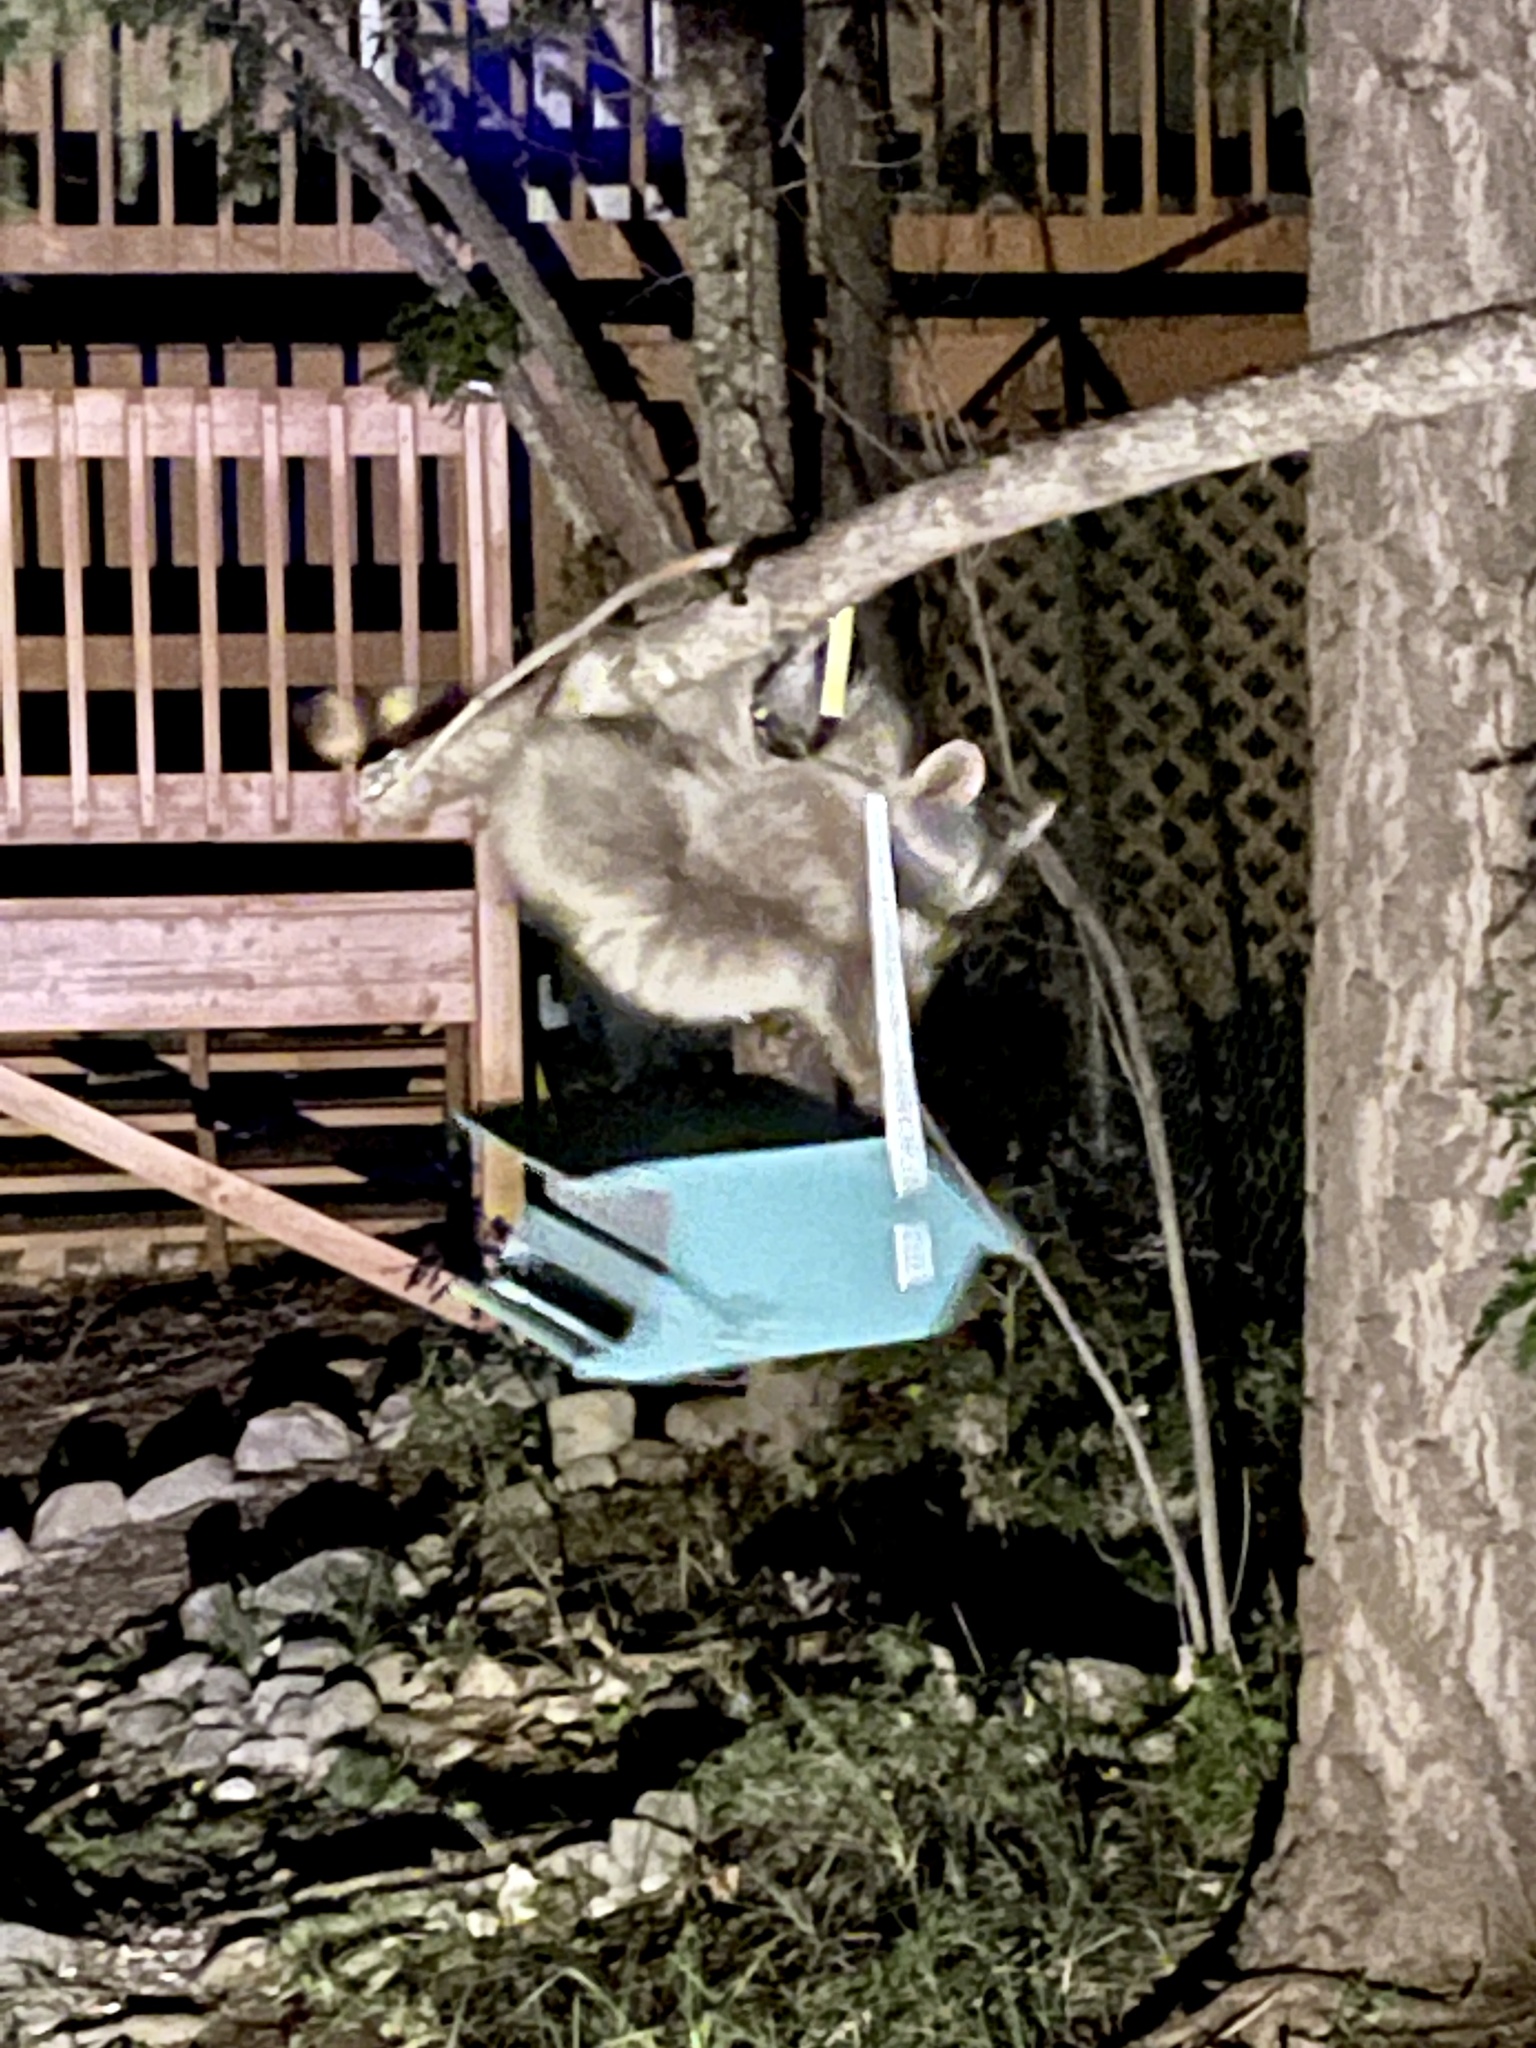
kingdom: Animalia
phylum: Chordata
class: Mammalia
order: Carnivora
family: Procyonidae
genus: Procyon
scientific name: Procyon lotor
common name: Raccoon
